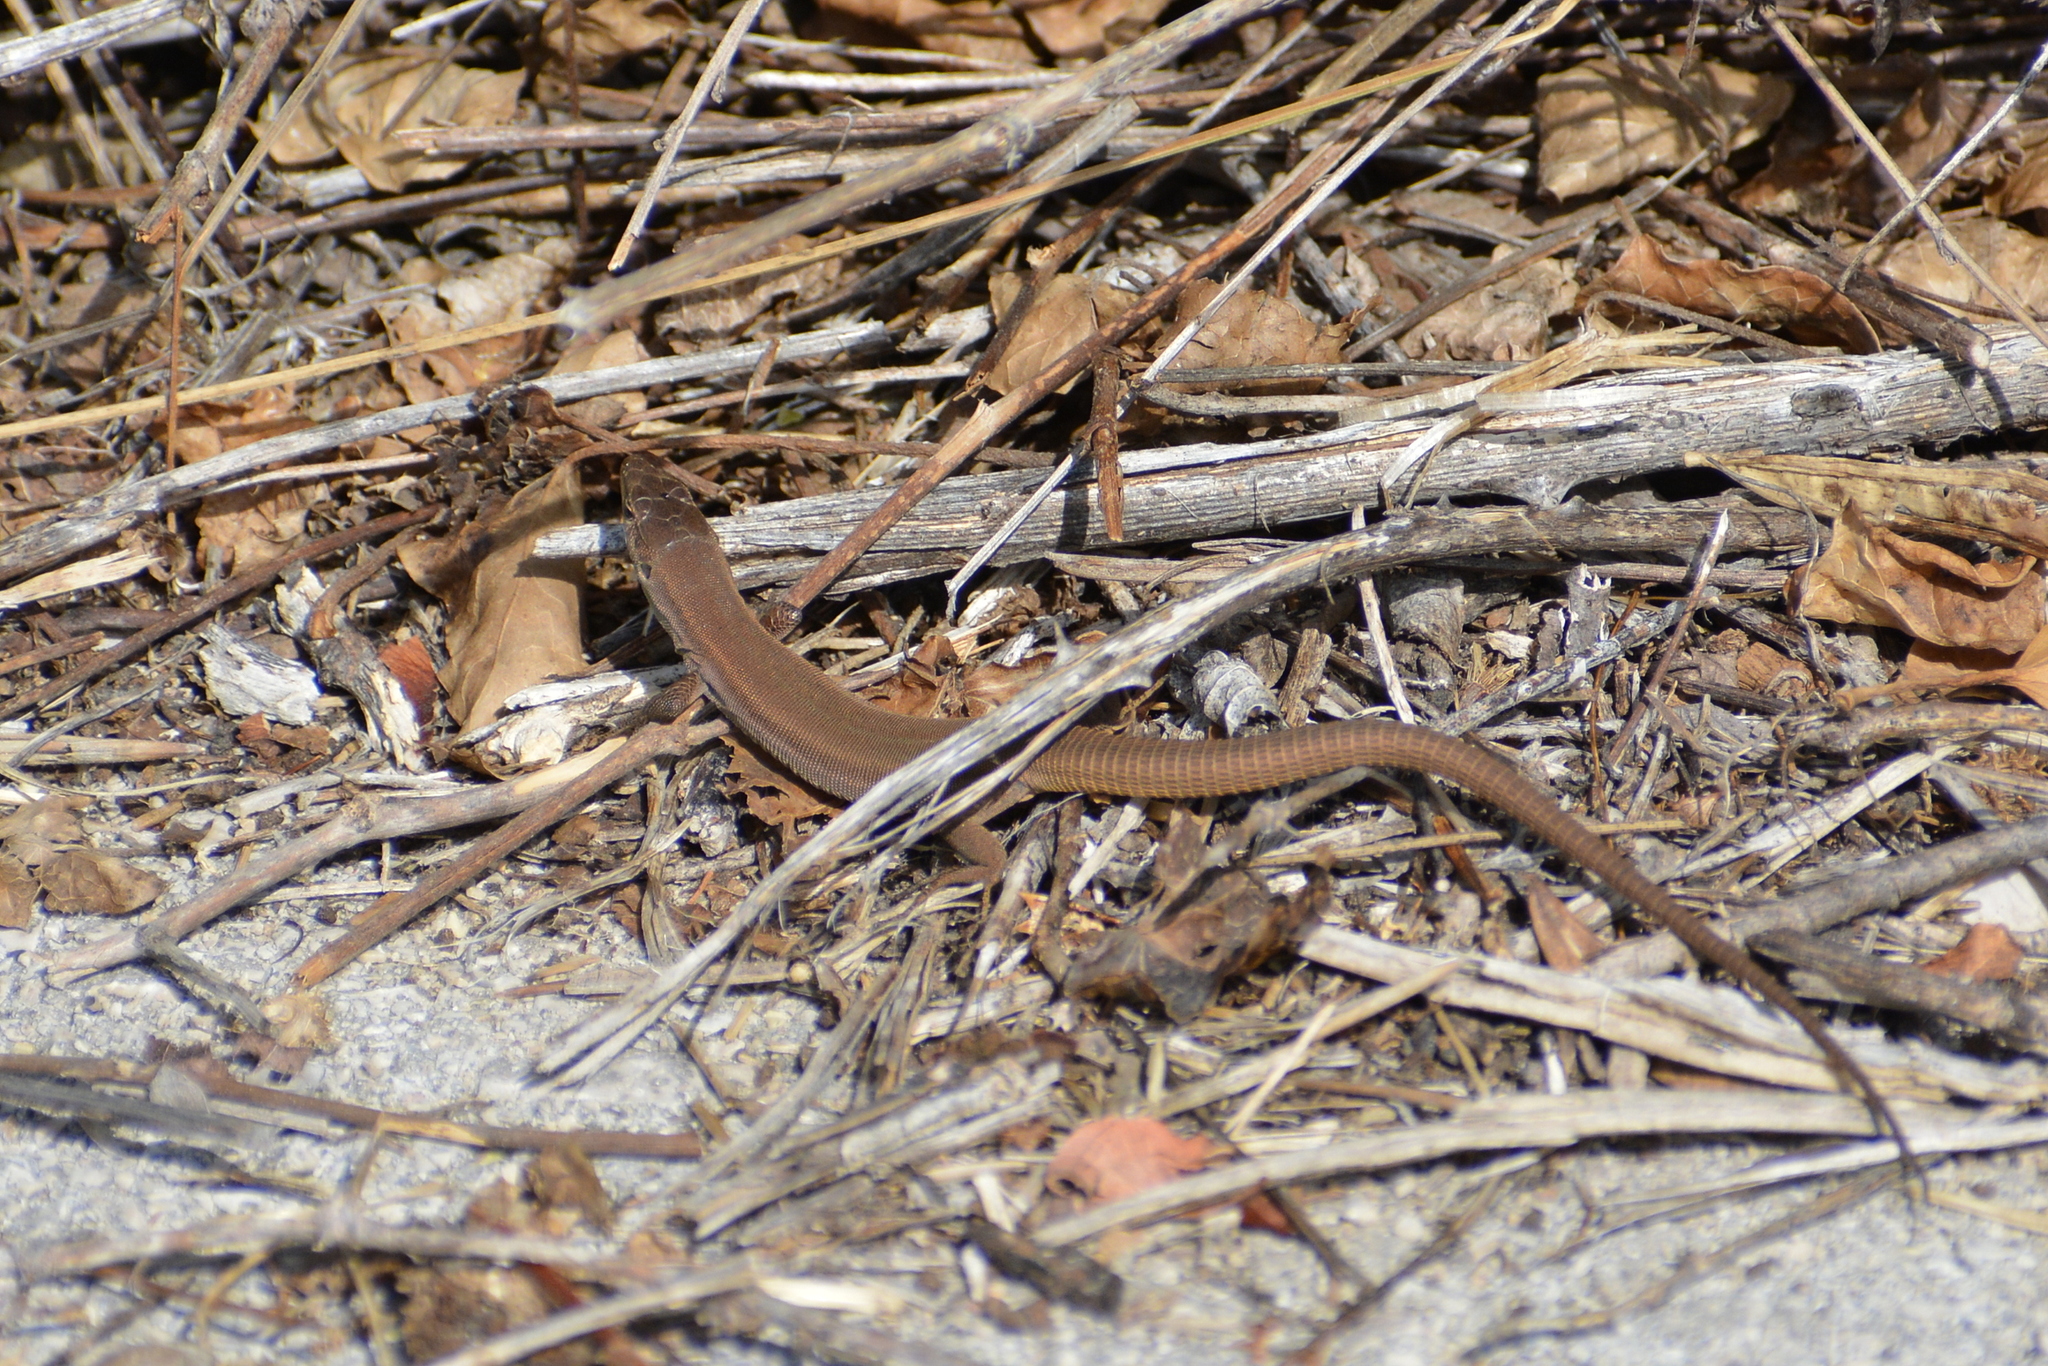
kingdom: Animalia
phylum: Chordata
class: Squamata
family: Lacertidae
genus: Podarcis
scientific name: Podarcis melisellensis
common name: Dalmatian wall lizard
